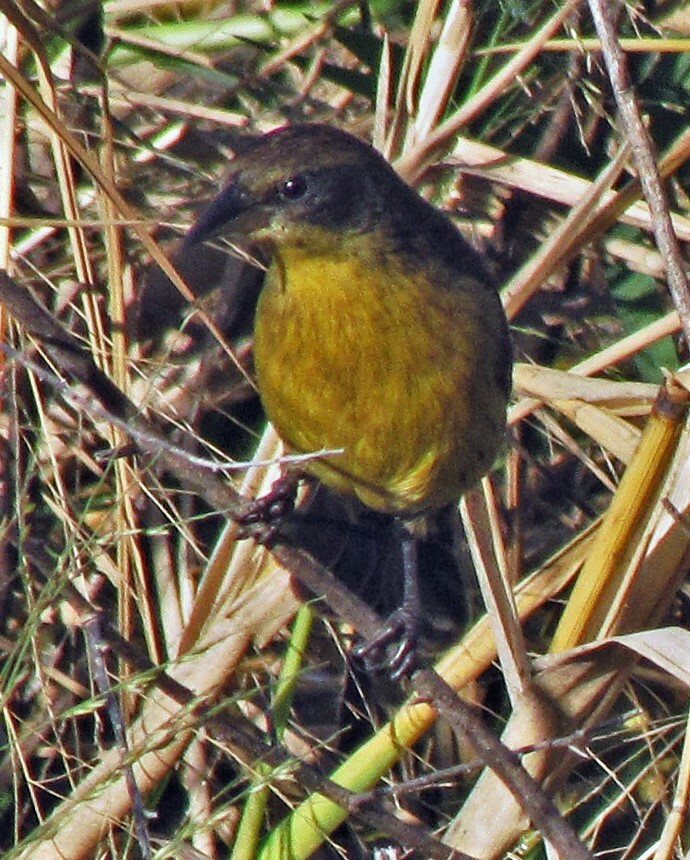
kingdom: Animalia
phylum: Chordata
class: Aves
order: Passeriformes
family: Icteridae
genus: Agelasticus
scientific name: Agelasticus cyanopus
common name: Unicolored blackbird
